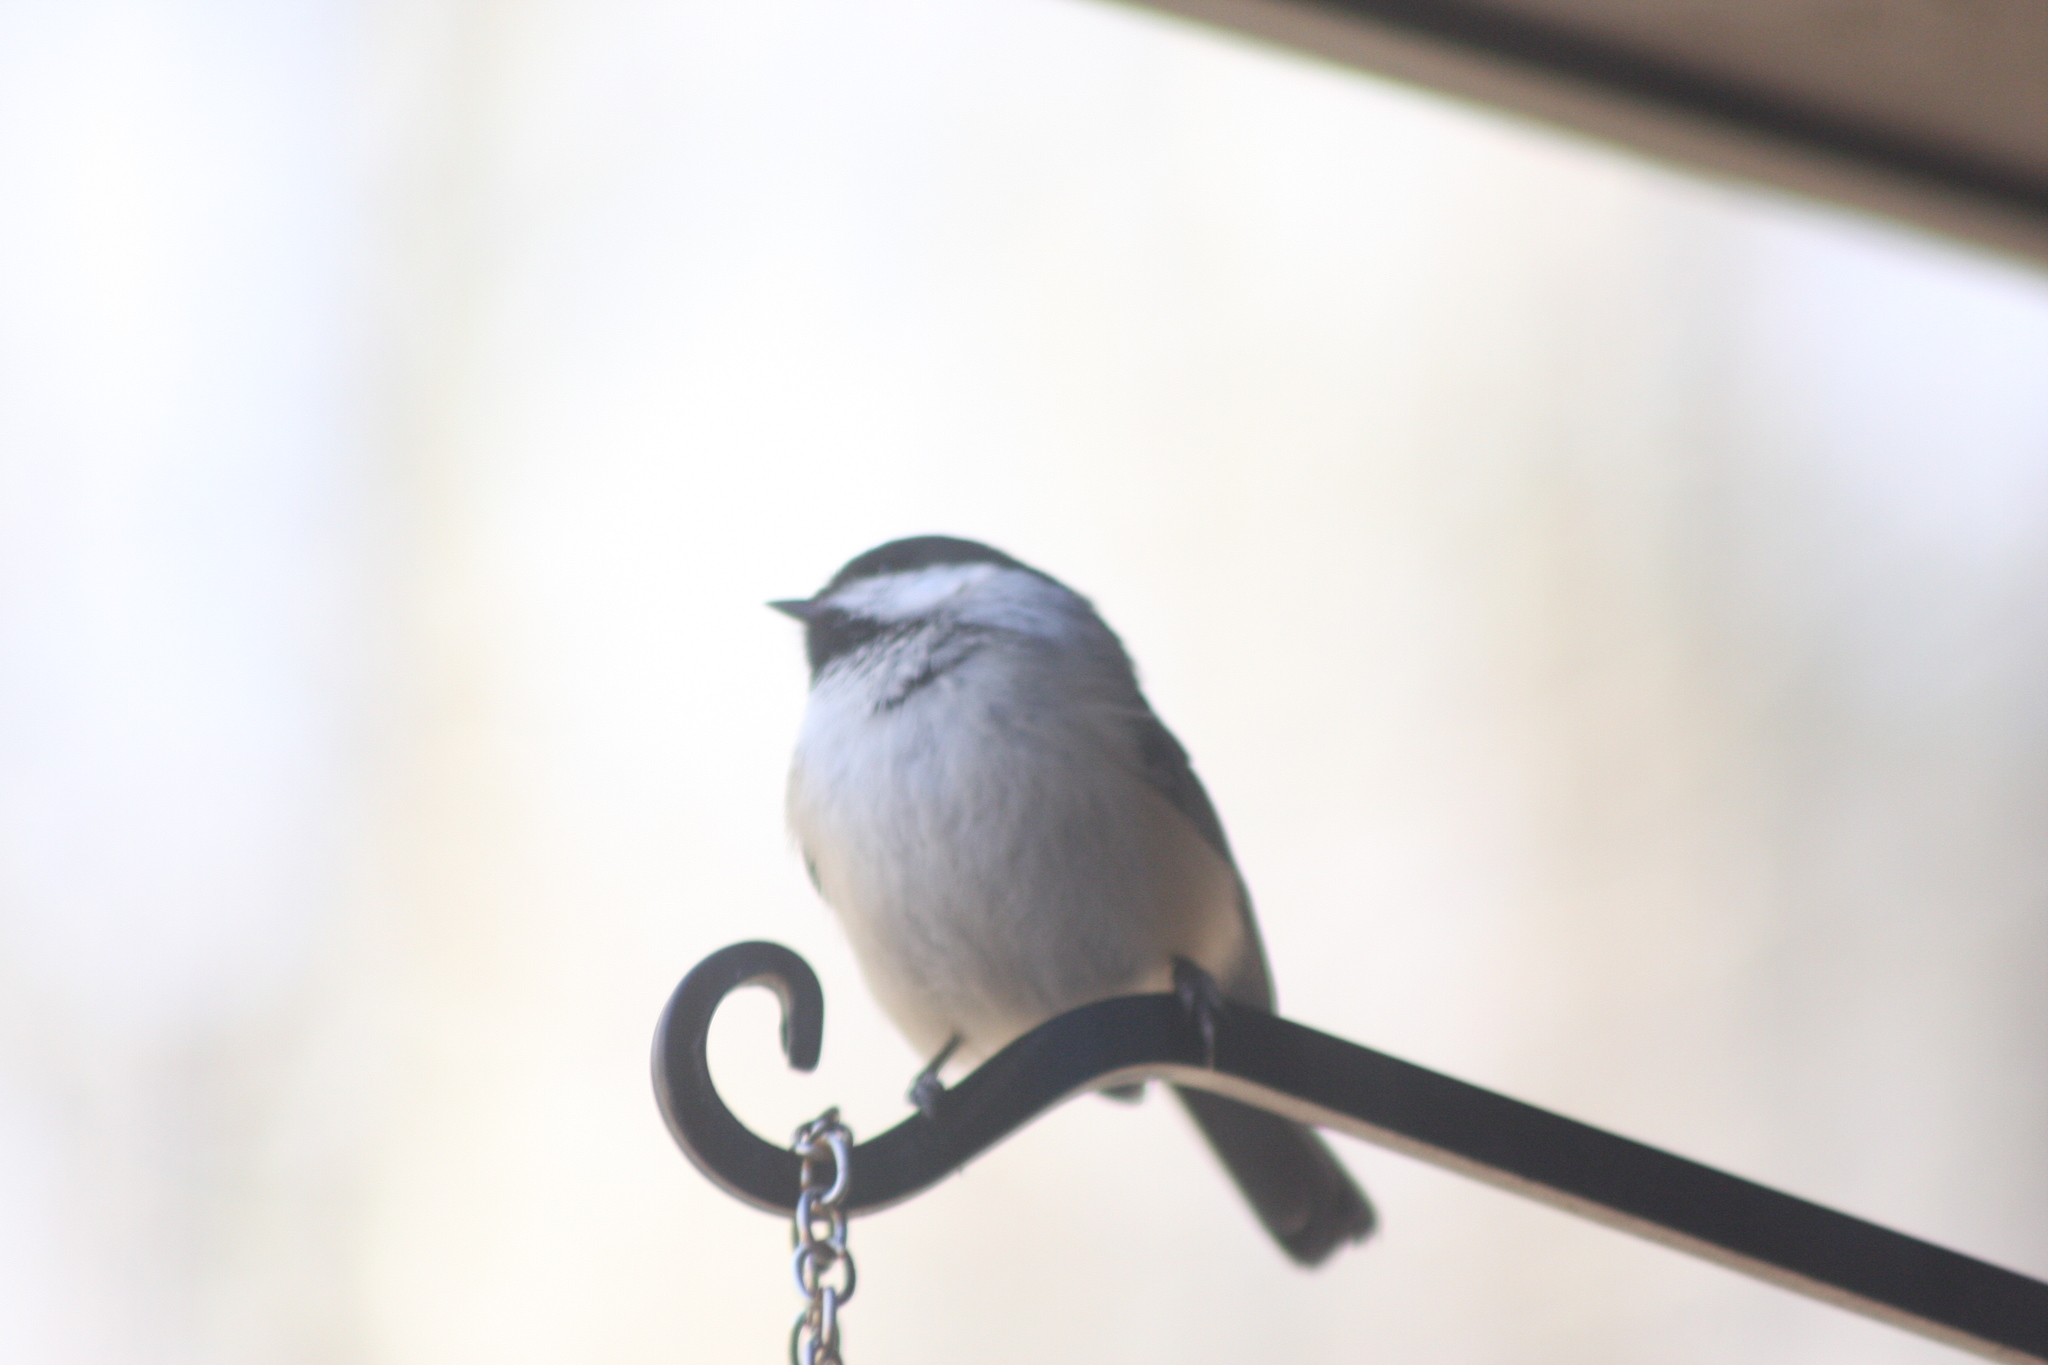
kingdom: Animalia
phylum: Chordata
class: Aves
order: Passeriformes
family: Paridae
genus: Poecile
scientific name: Poecile atricapillus
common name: Black-capped chickadee
